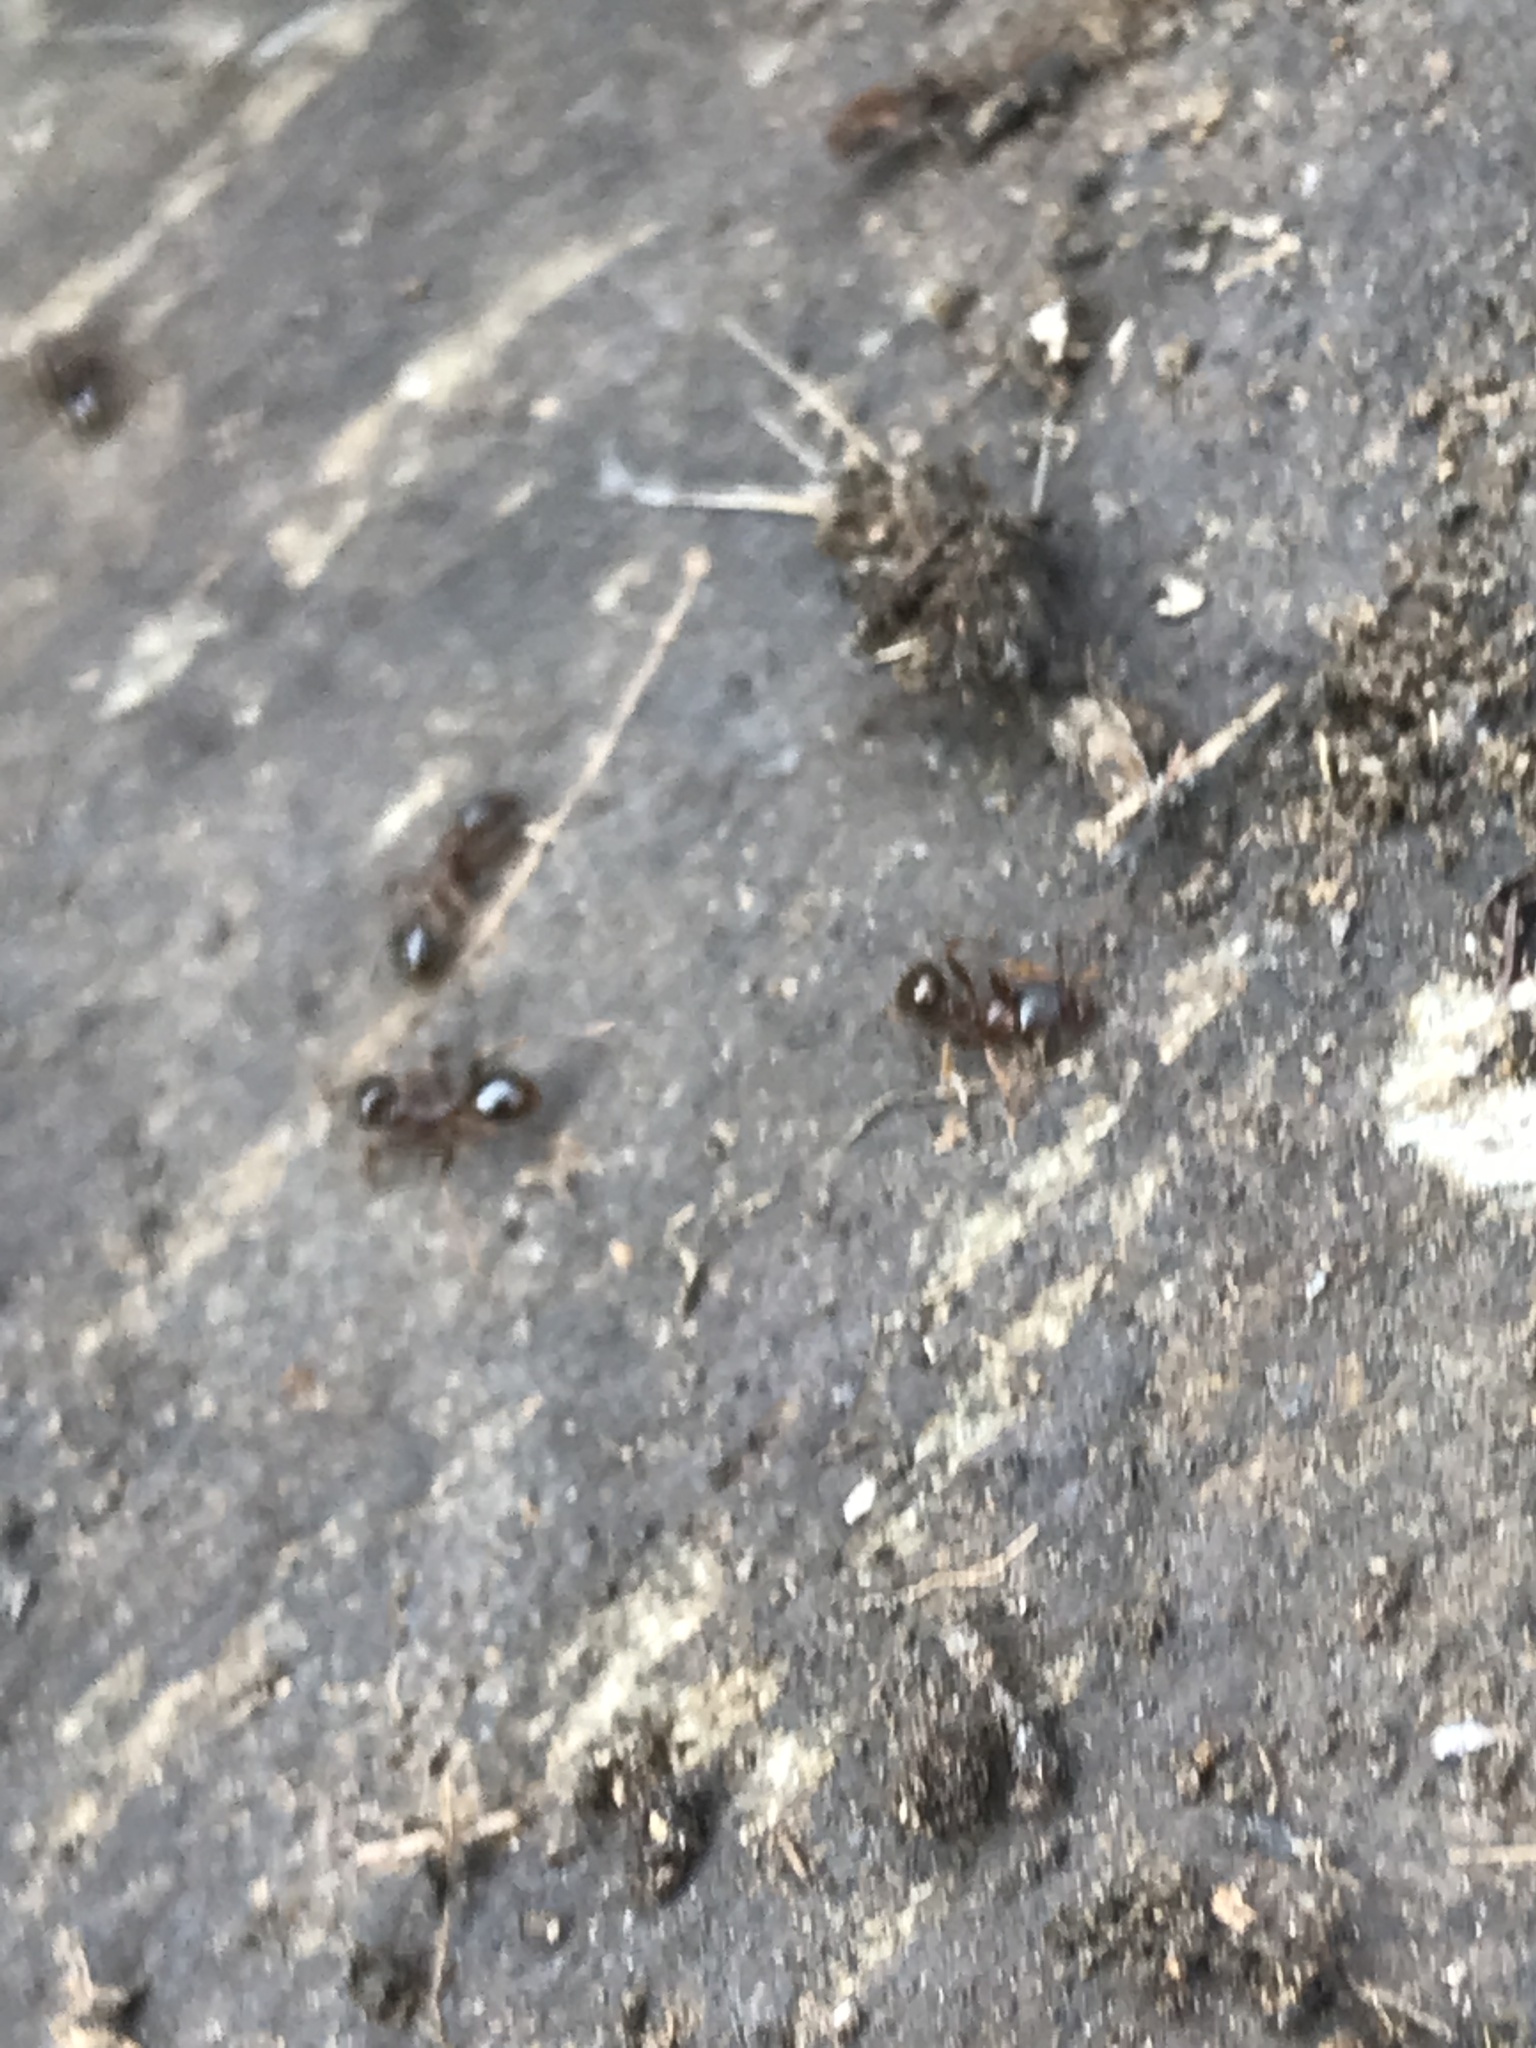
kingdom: Animalia
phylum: Arthropoda
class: Insecta
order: Hymenoptera
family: Formicidae
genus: Aphaenogaster
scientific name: Aphaenogaster occidentalis
